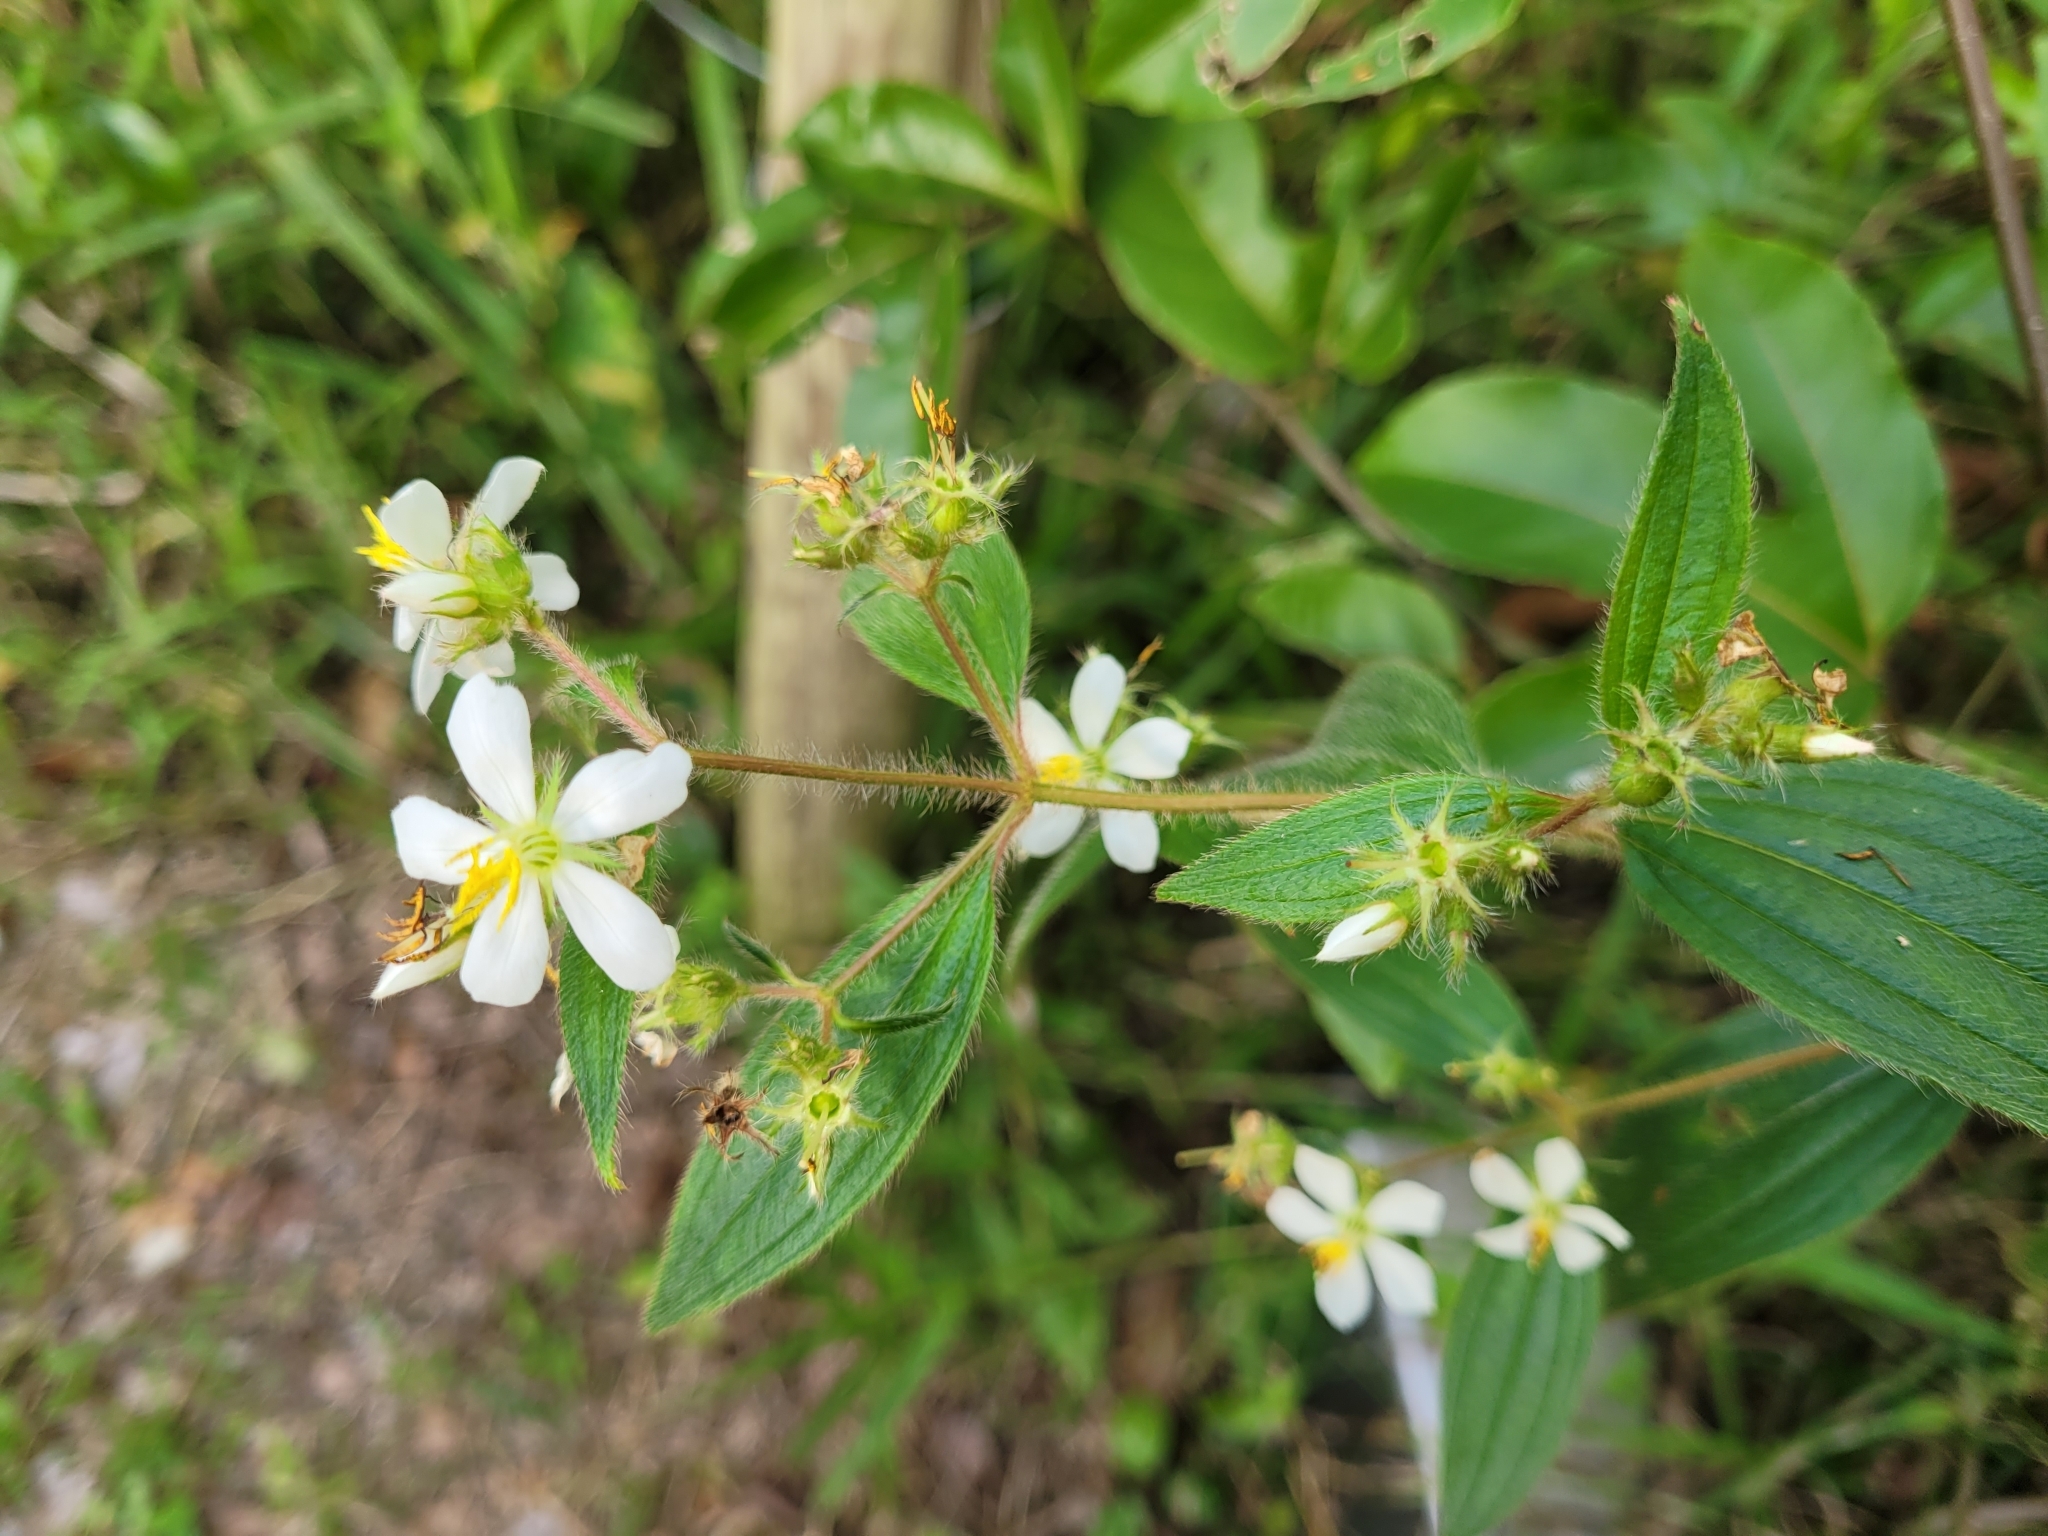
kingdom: Plantae
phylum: Tracheophyta
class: Magnoliopsida
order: Myrtales
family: Melastomataceae
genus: Chaetogastra
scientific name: Chaetogastra longifolia
